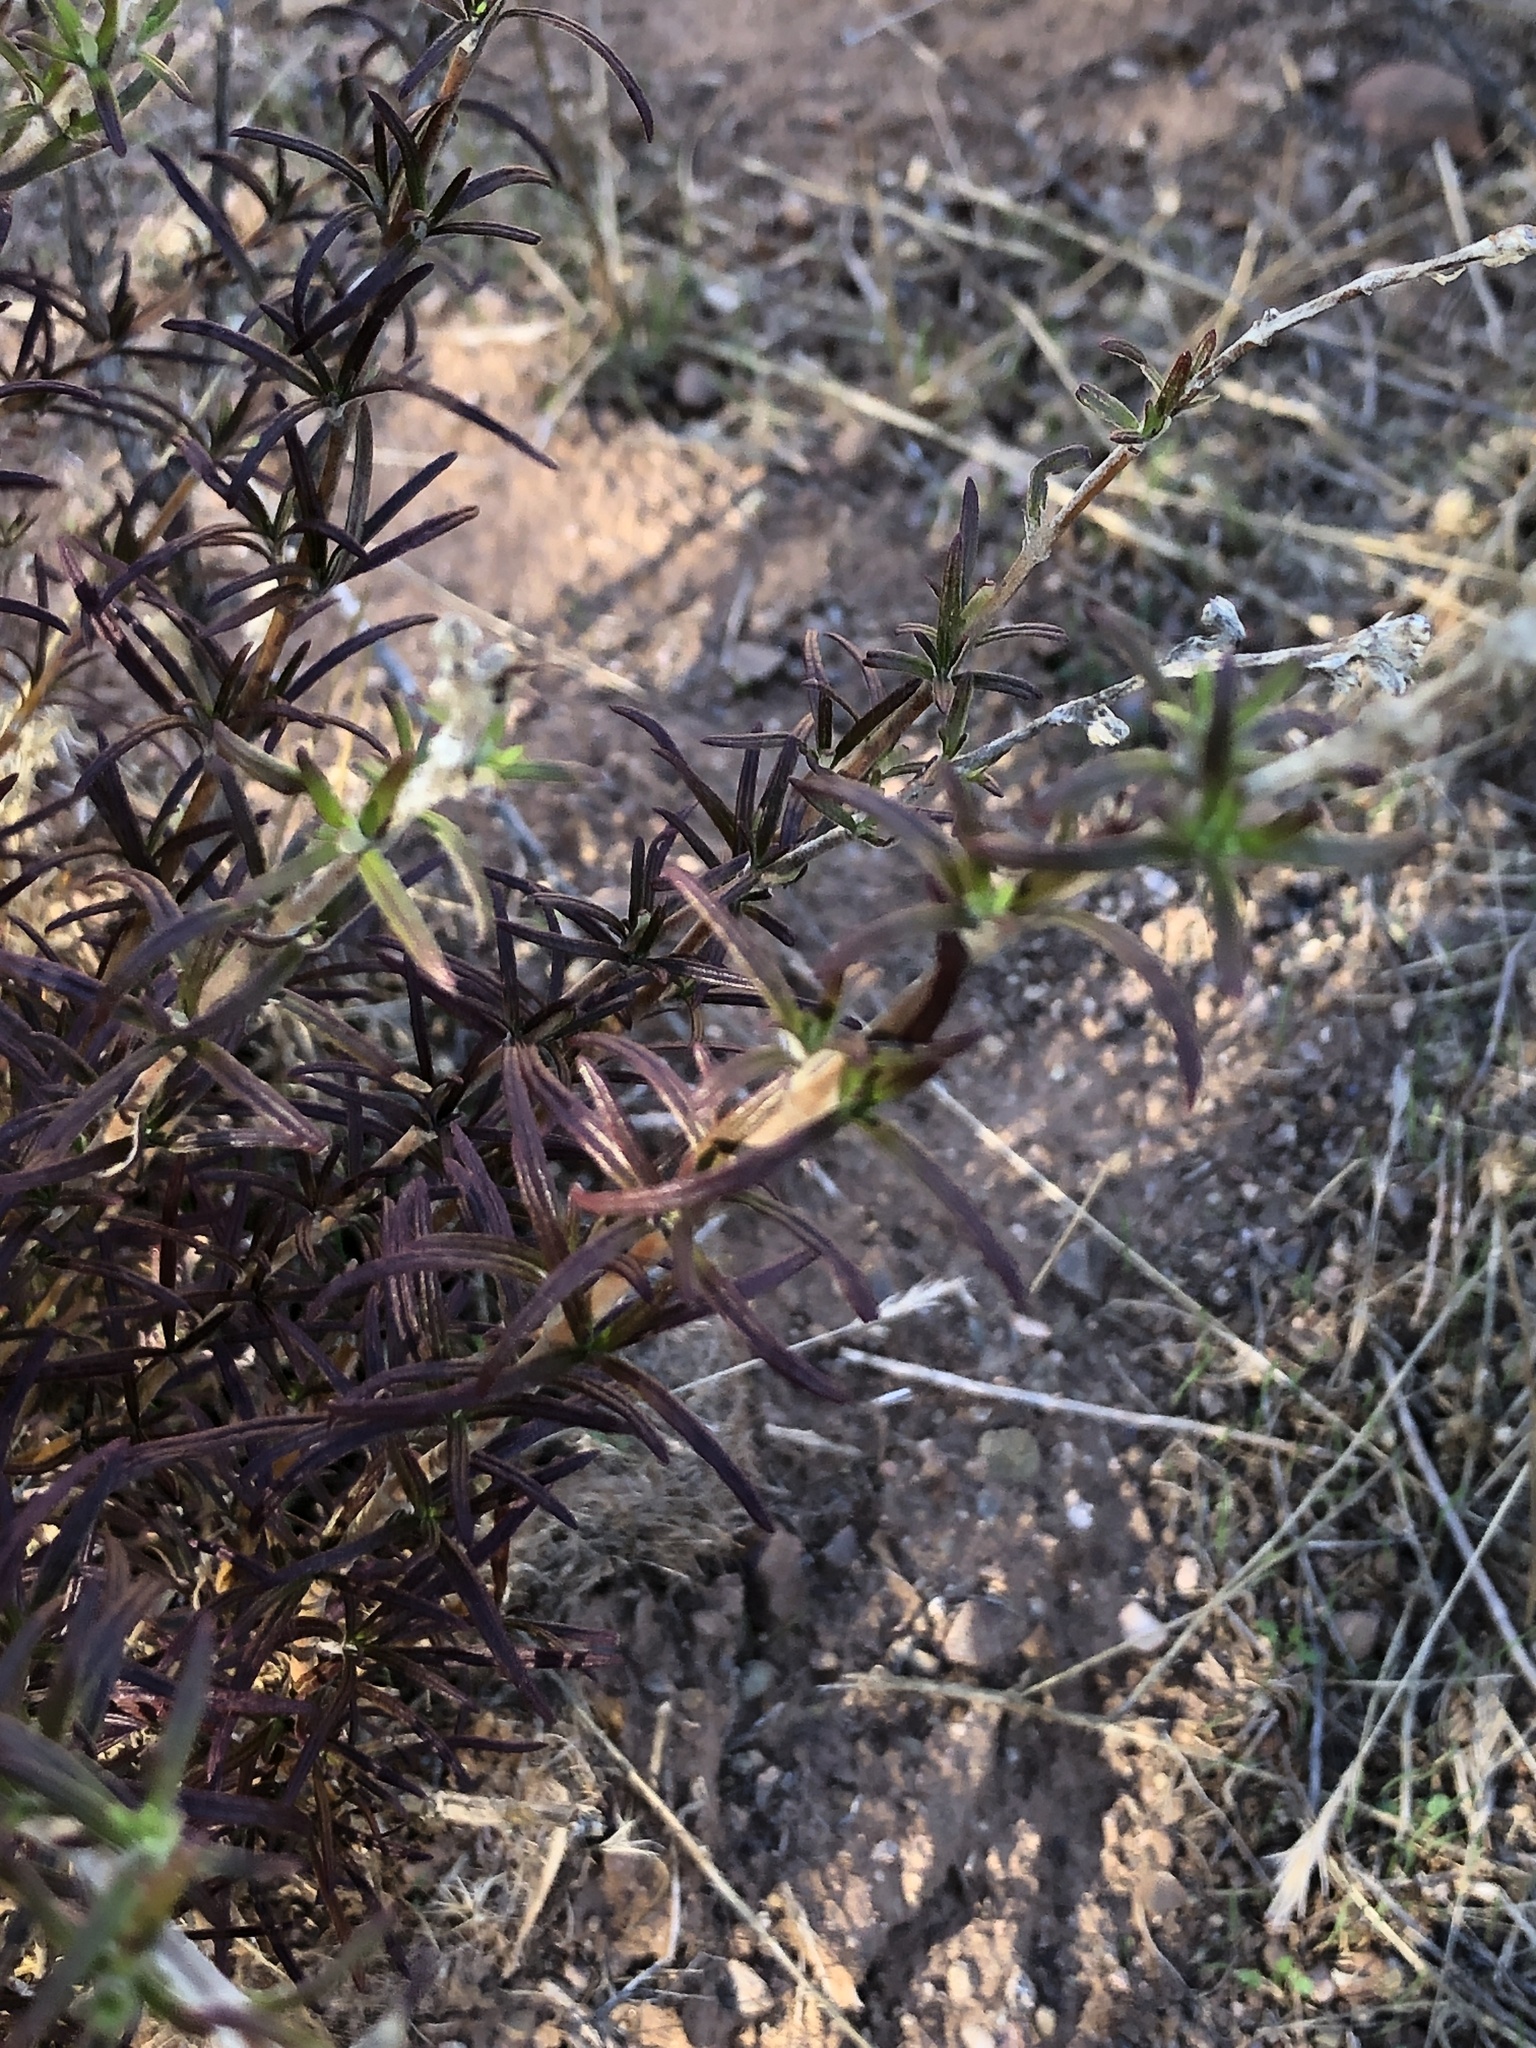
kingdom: Plantae
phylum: Tracheophyta
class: Magnoliopsida
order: Lamiales
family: Lamiaceae
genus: Trichostema
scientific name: Trichostema lanatum
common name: Woolly bluecurls
